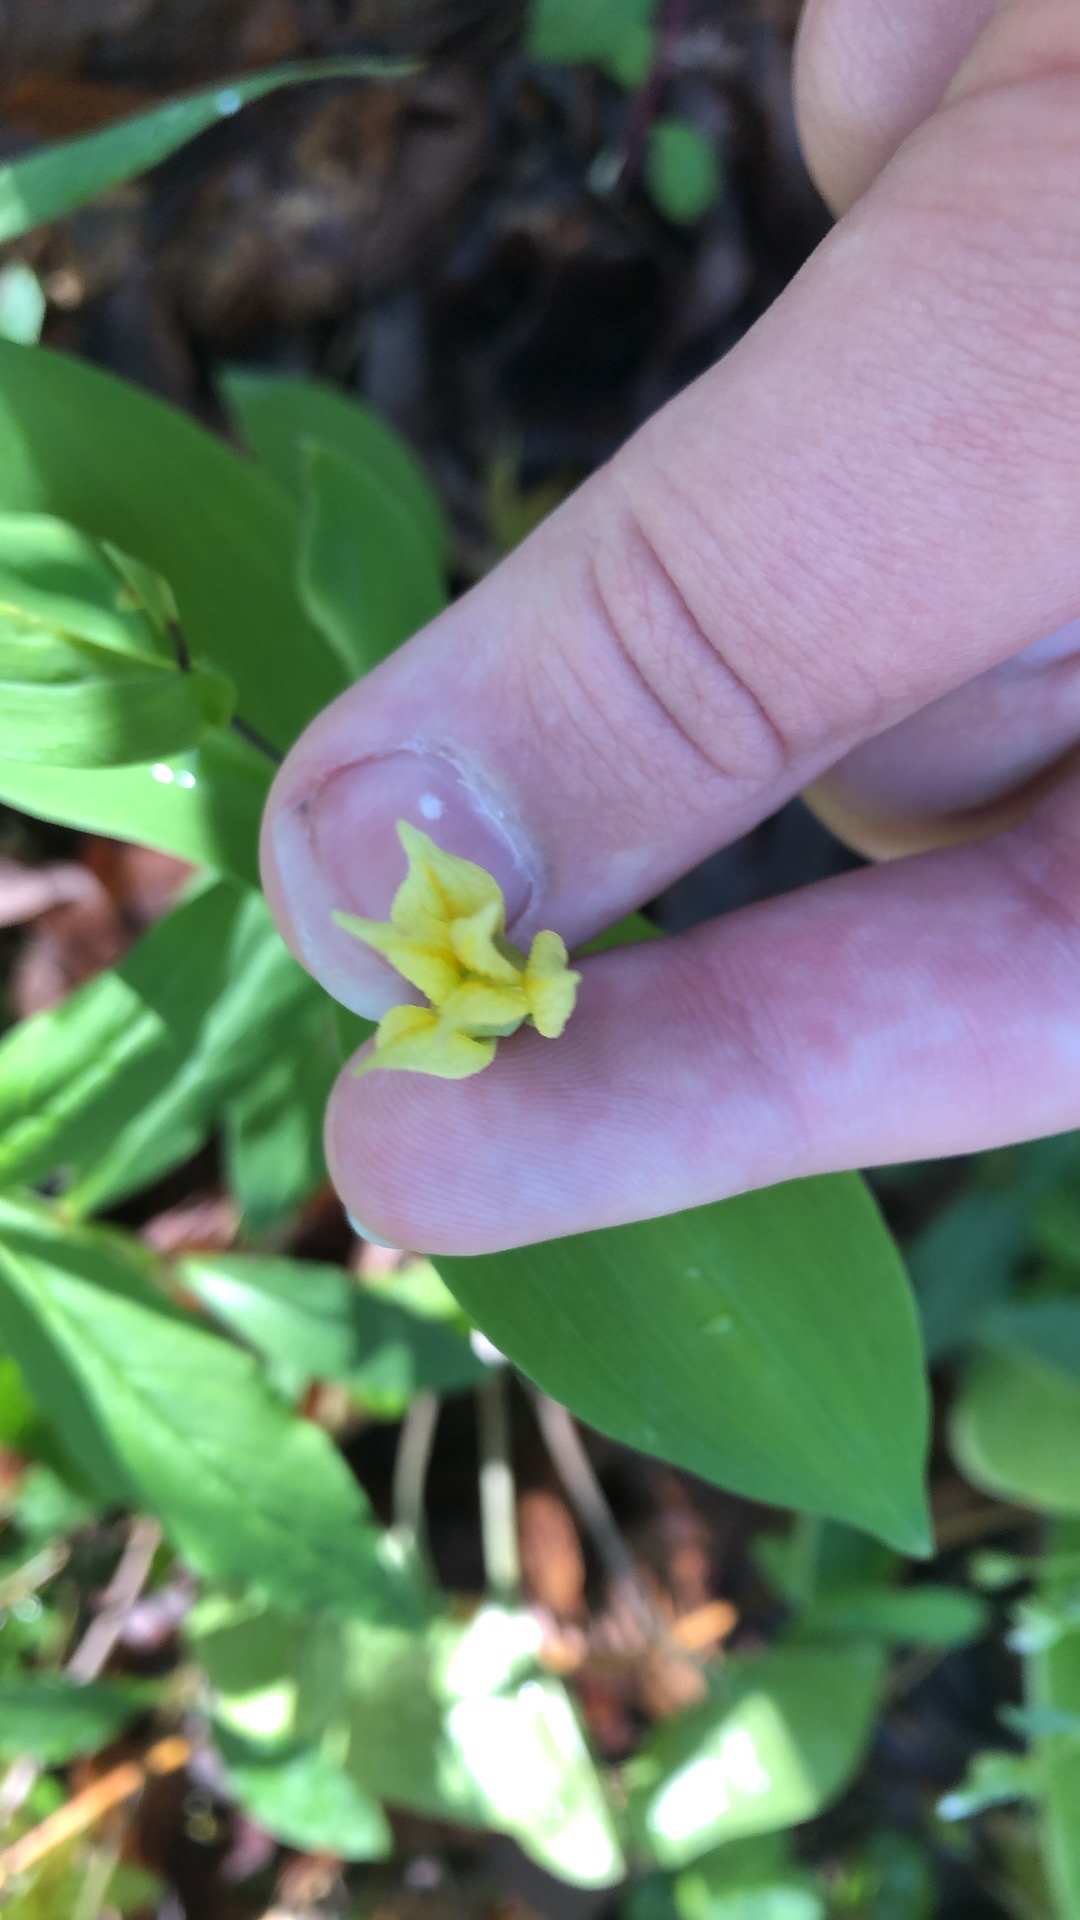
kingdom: Plantae
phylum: Tracheophyta
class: Liliopsida
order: Liliales
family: Colchicaceae
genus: Uvularia
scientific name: Uvularia perfoliata
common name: Perfoliate bellwort
